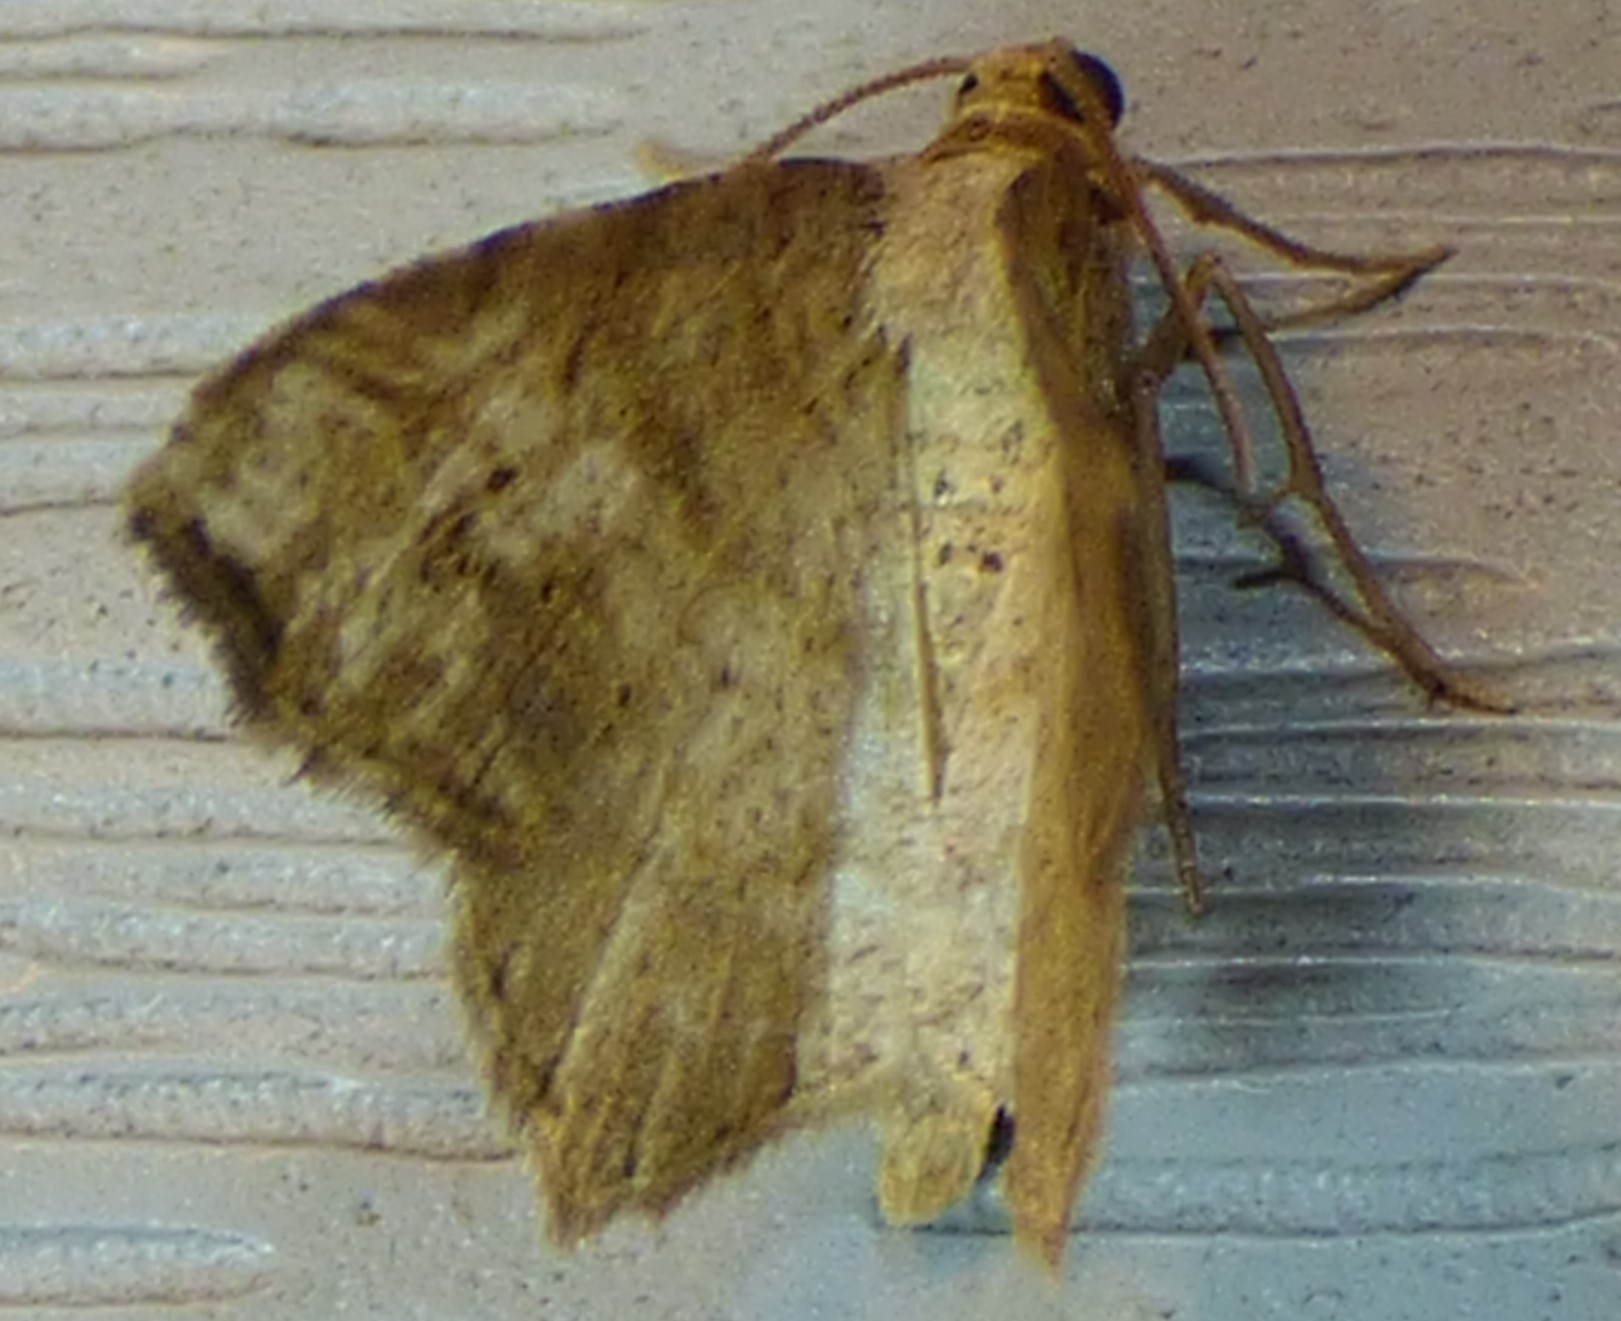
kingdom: Animalia
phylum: Arthropoda
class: Insecta
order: Lepidoptera
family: Geometridae
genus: Macaria
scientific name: Macaria aemulataria
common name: Common angle
